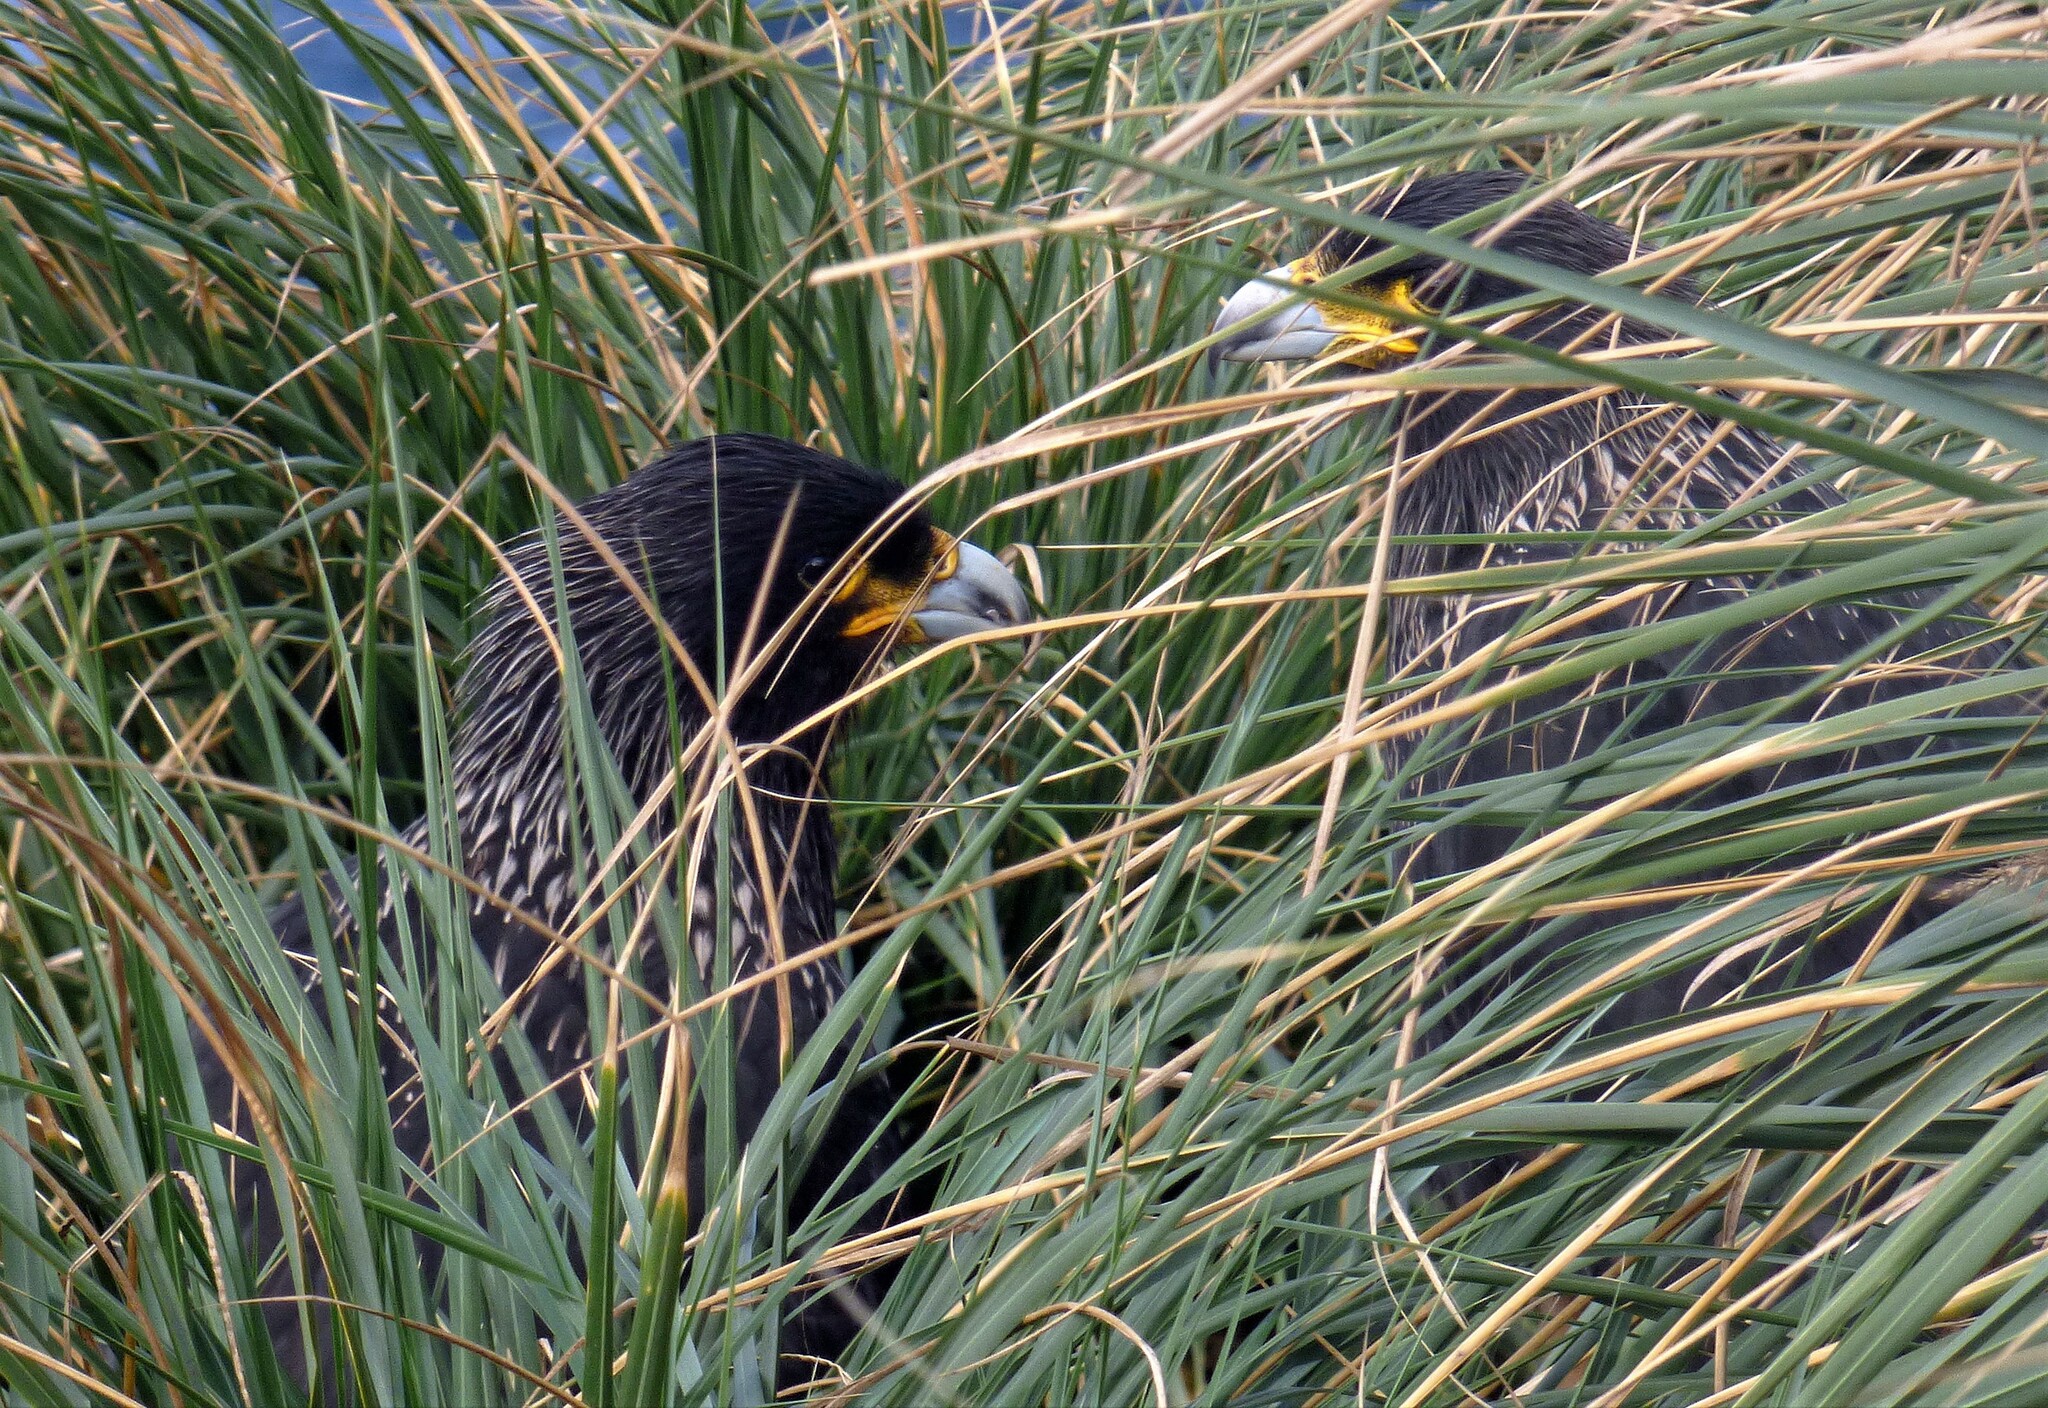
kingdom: Animalia
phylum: Chordata
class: Aves
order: Falconiformes
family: Falconidae
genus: Daptrius
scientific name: Daptrius
